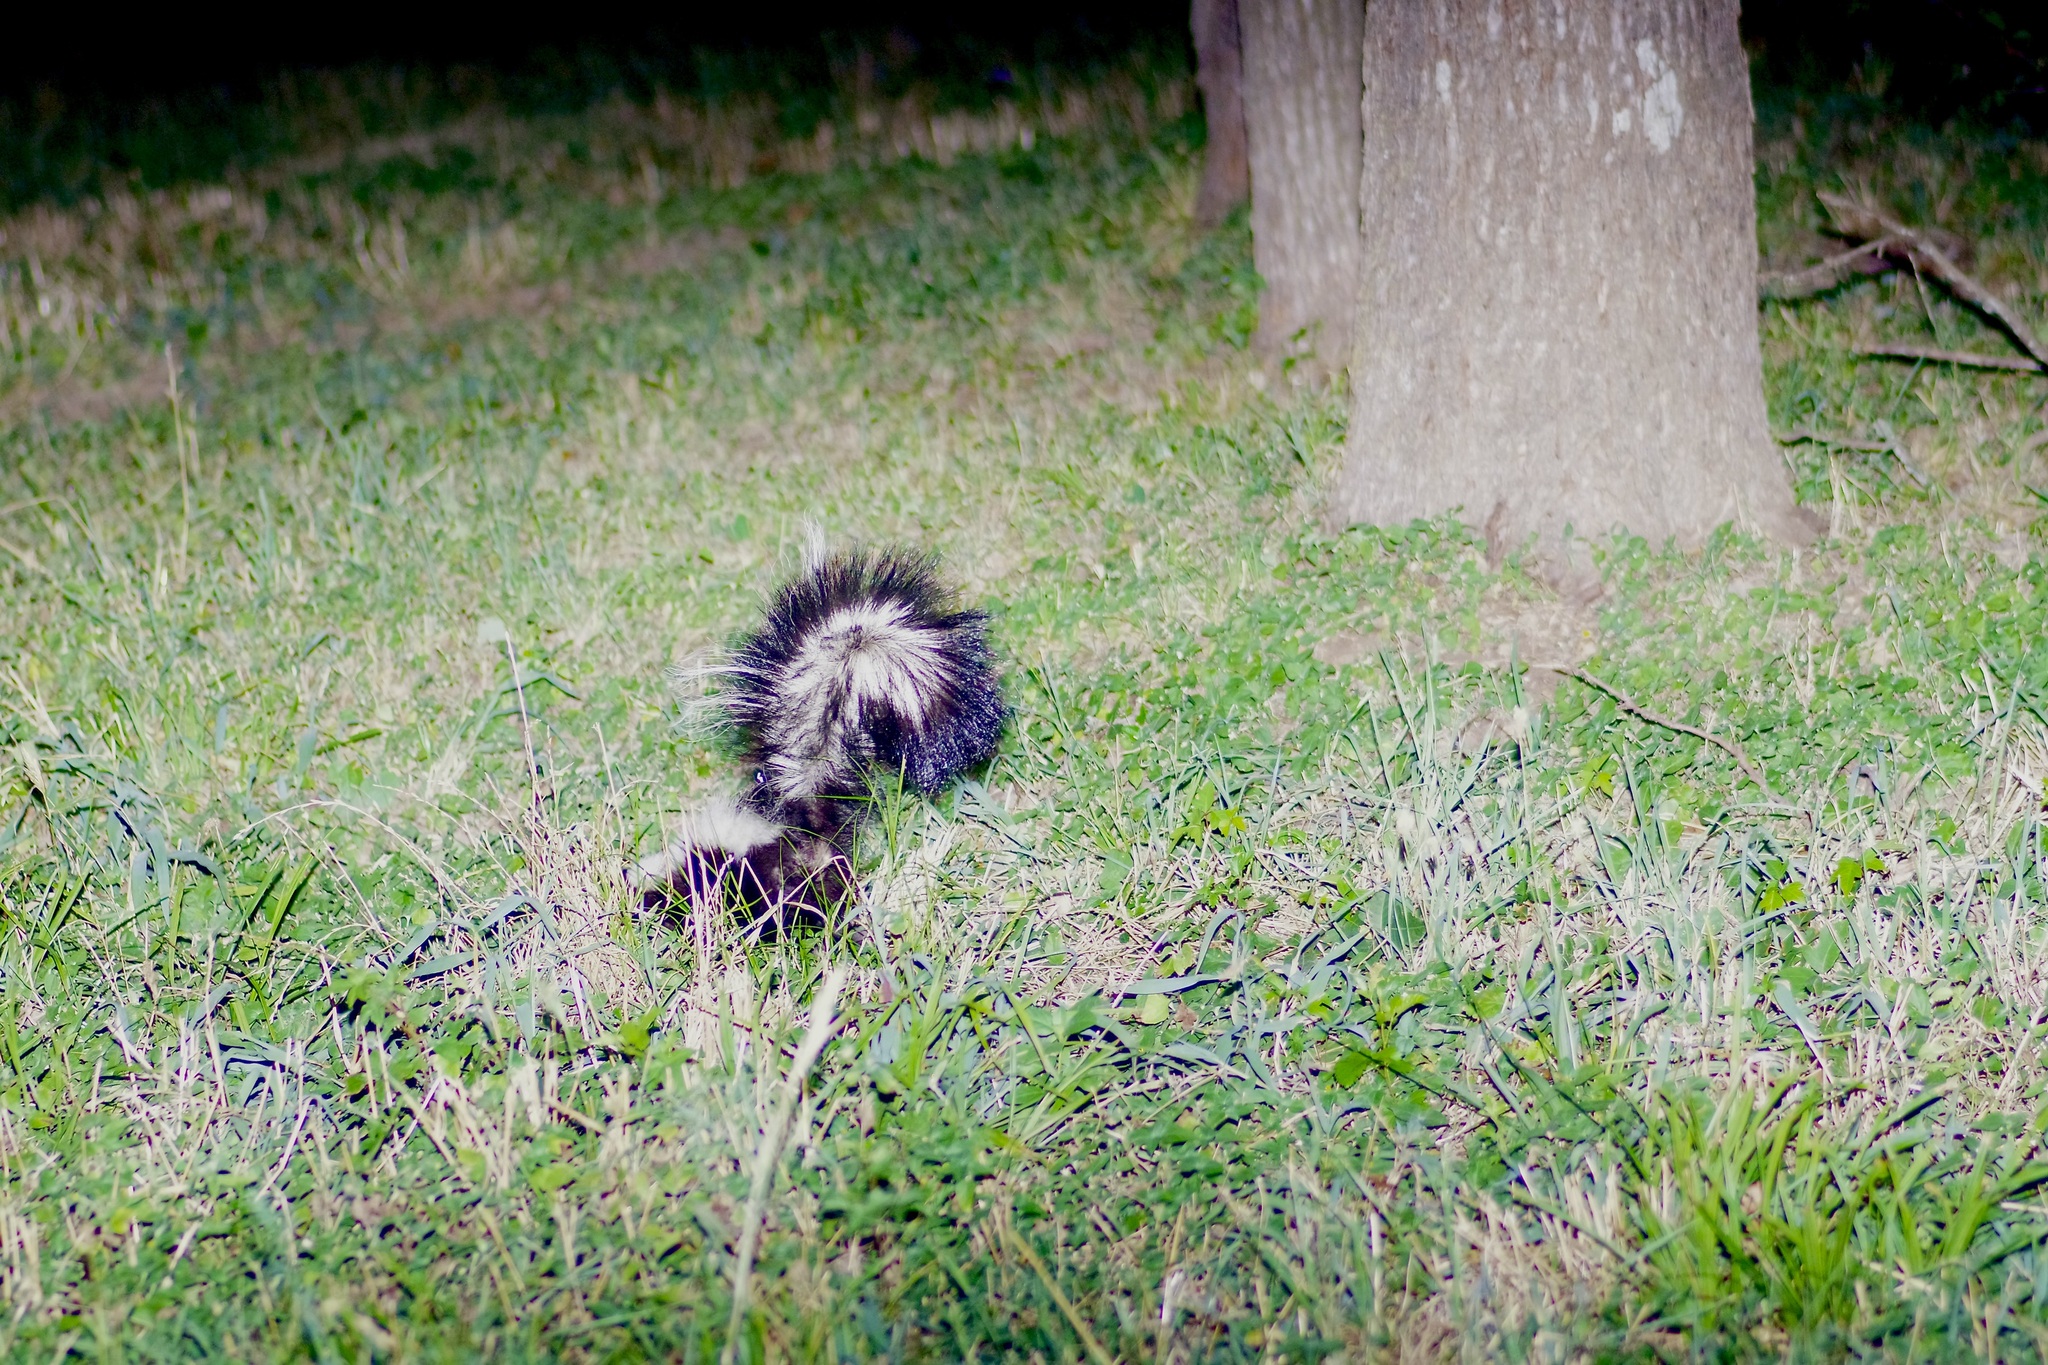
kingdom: Animalia
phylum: Chordata
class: Mammalia
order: Carnivora
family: Mephitidae
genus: Mephitis
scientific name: Mephitis mephitis
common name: Striped skunk
